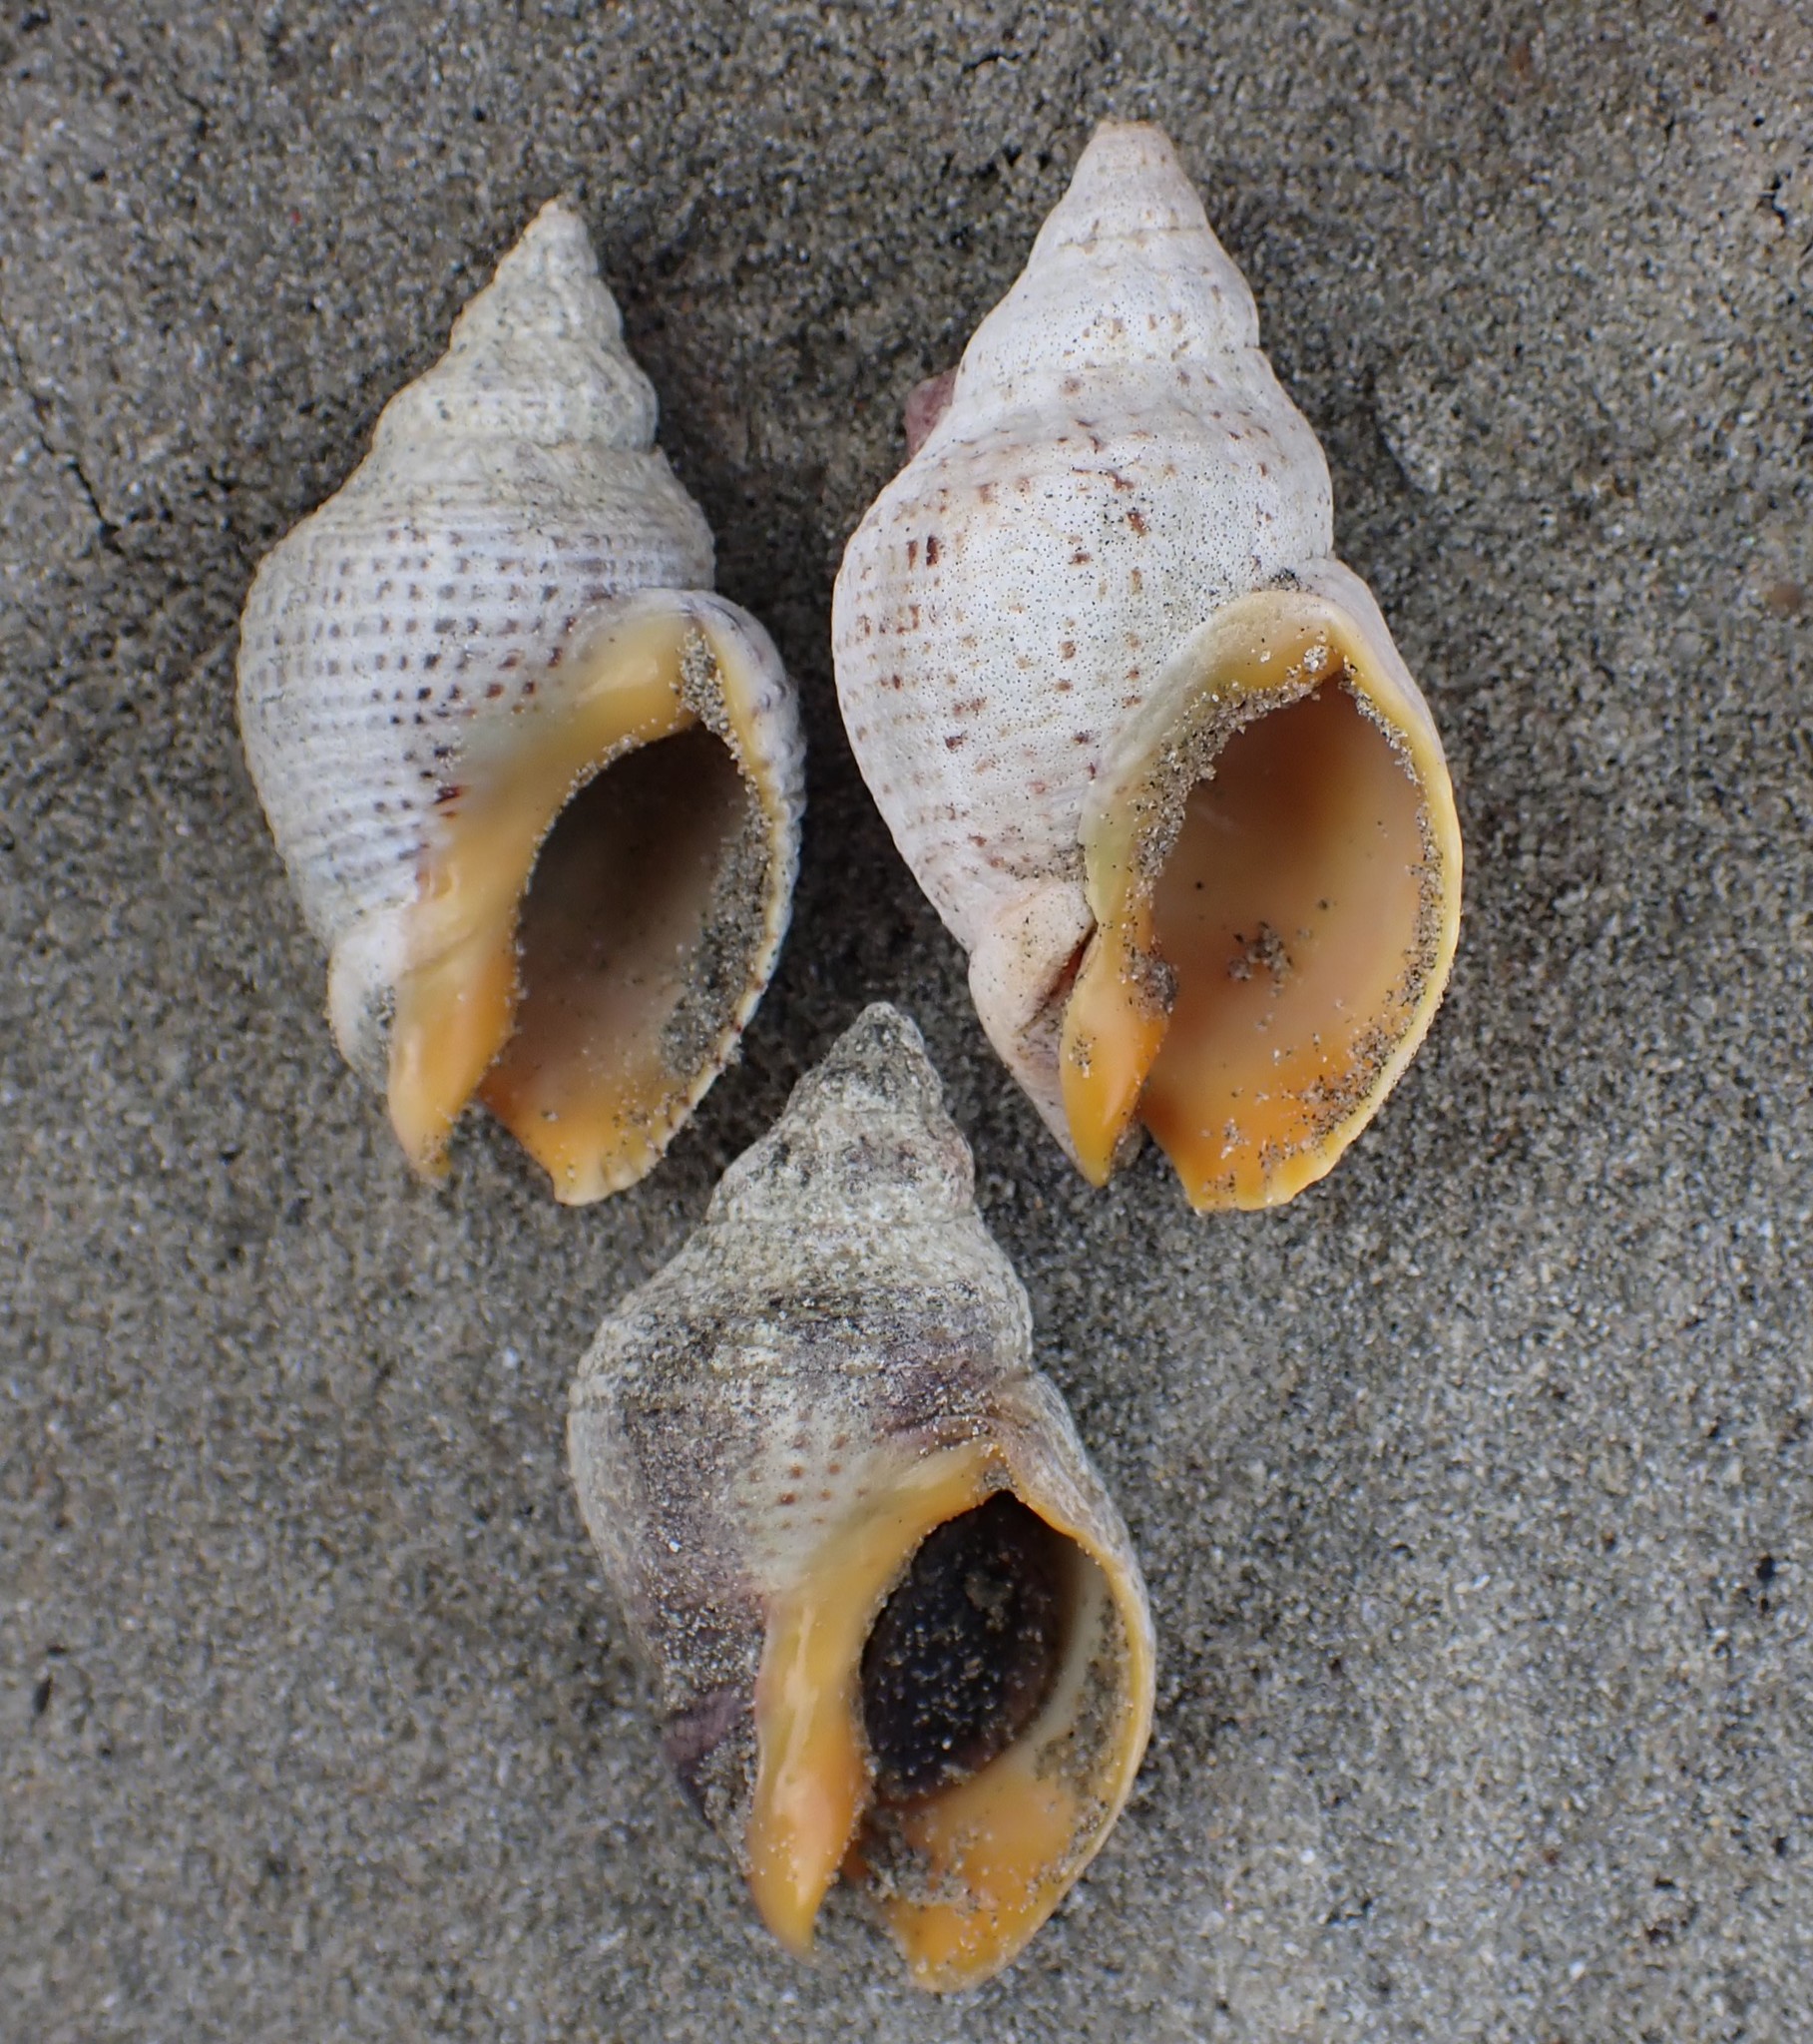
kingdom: Animalia
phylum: Mollusca
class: Gastropoda
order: Neogastropoda
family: Cominellidae
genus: Cominella
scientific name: Cominella adspersa
